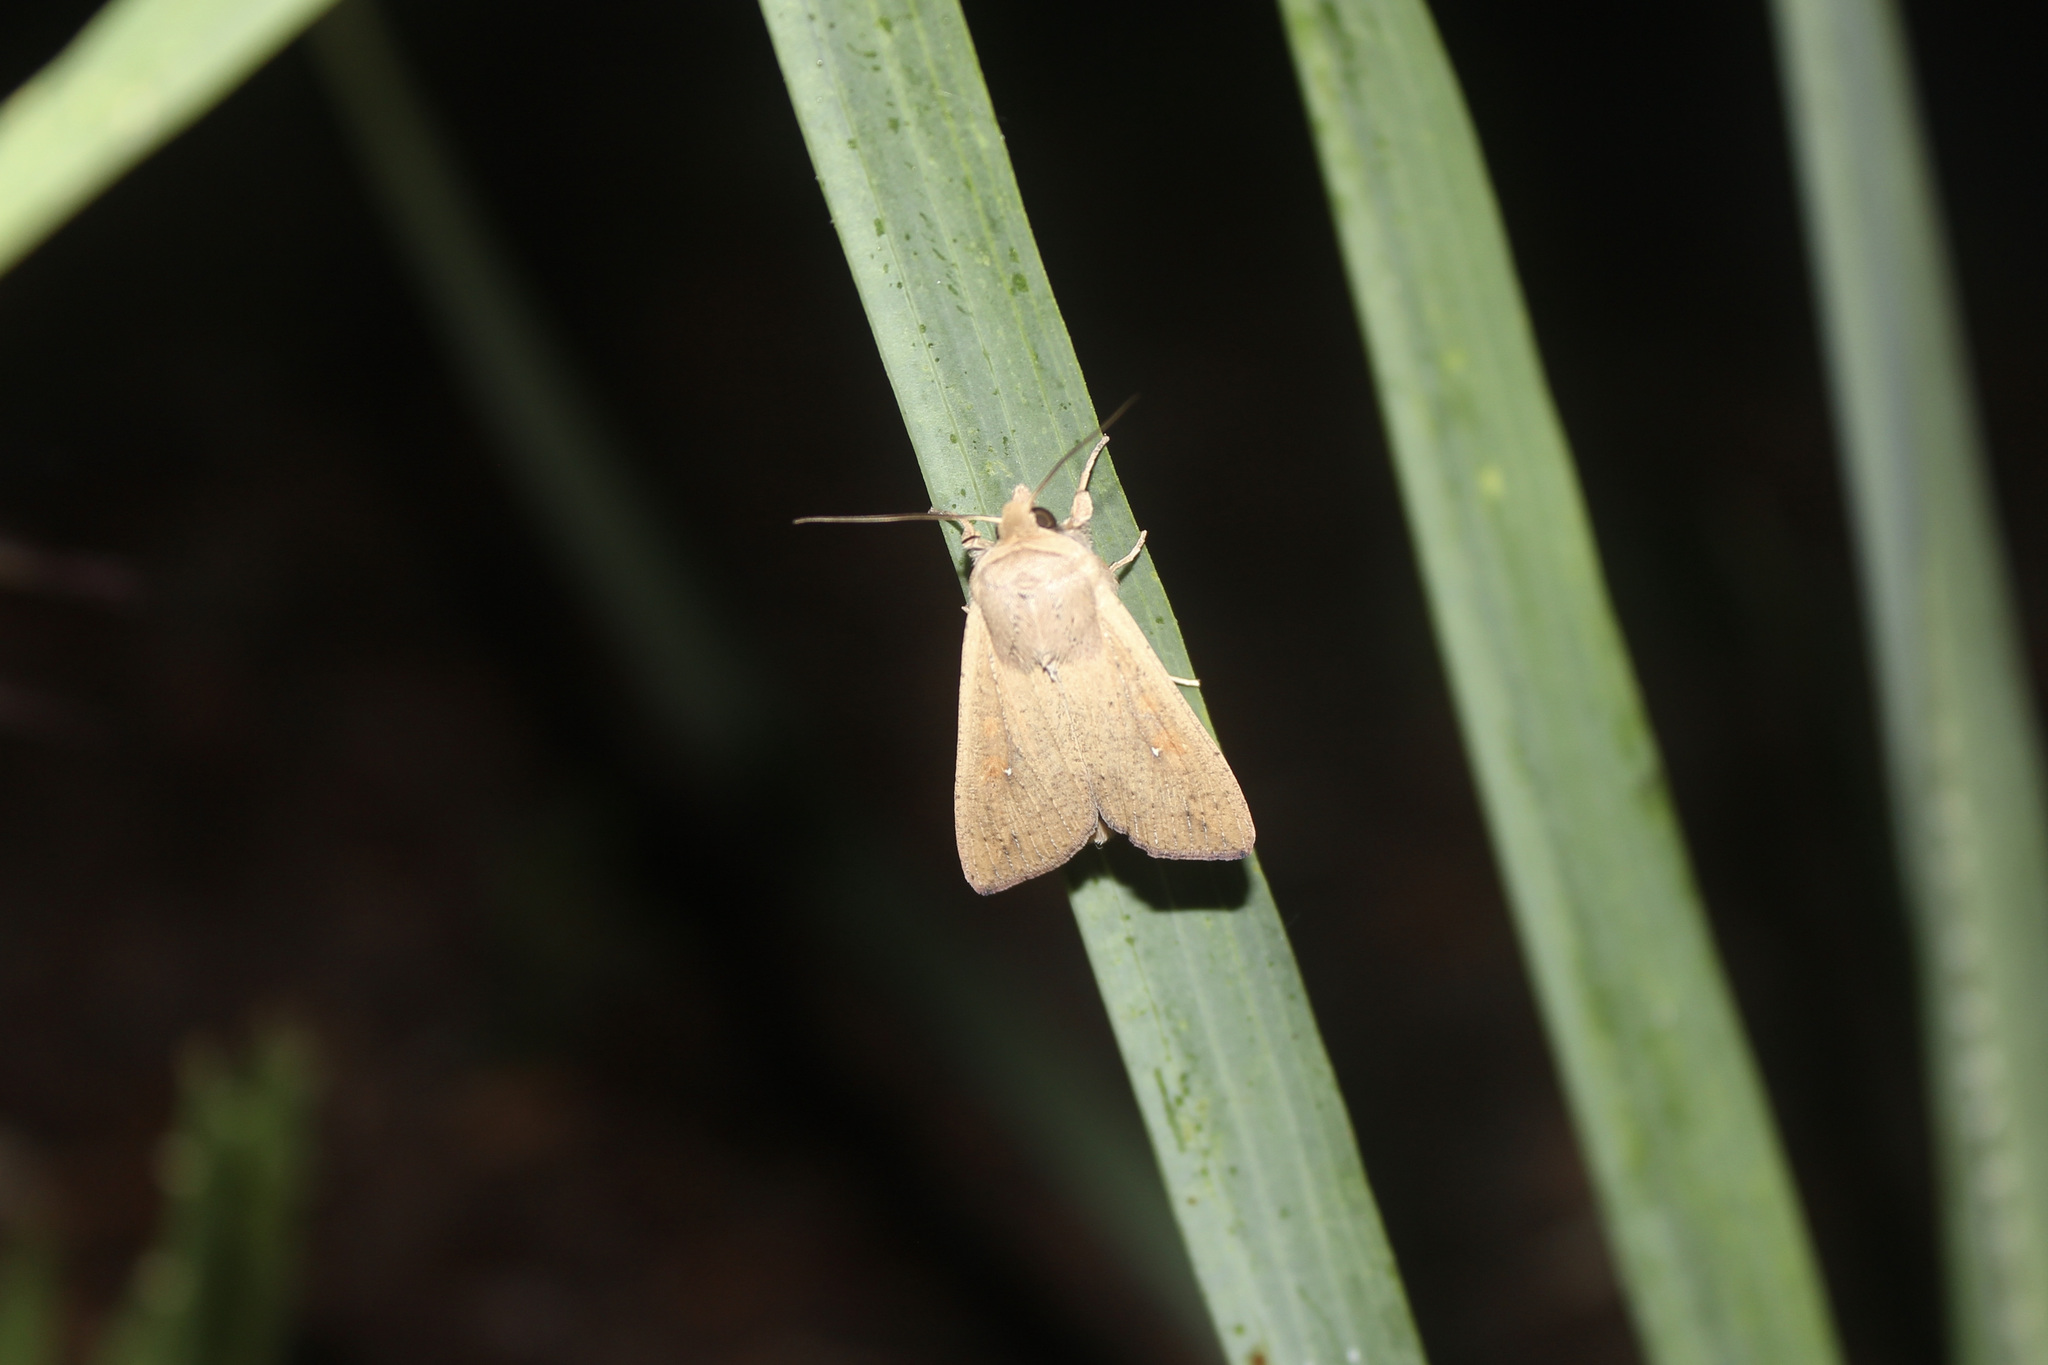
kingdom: Animalia
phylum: Arthropoda
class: Insecta
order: Lepidoptera
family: Noctuidae
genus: Mythimna
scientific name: Mythimna unipuncta
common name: White-speck
